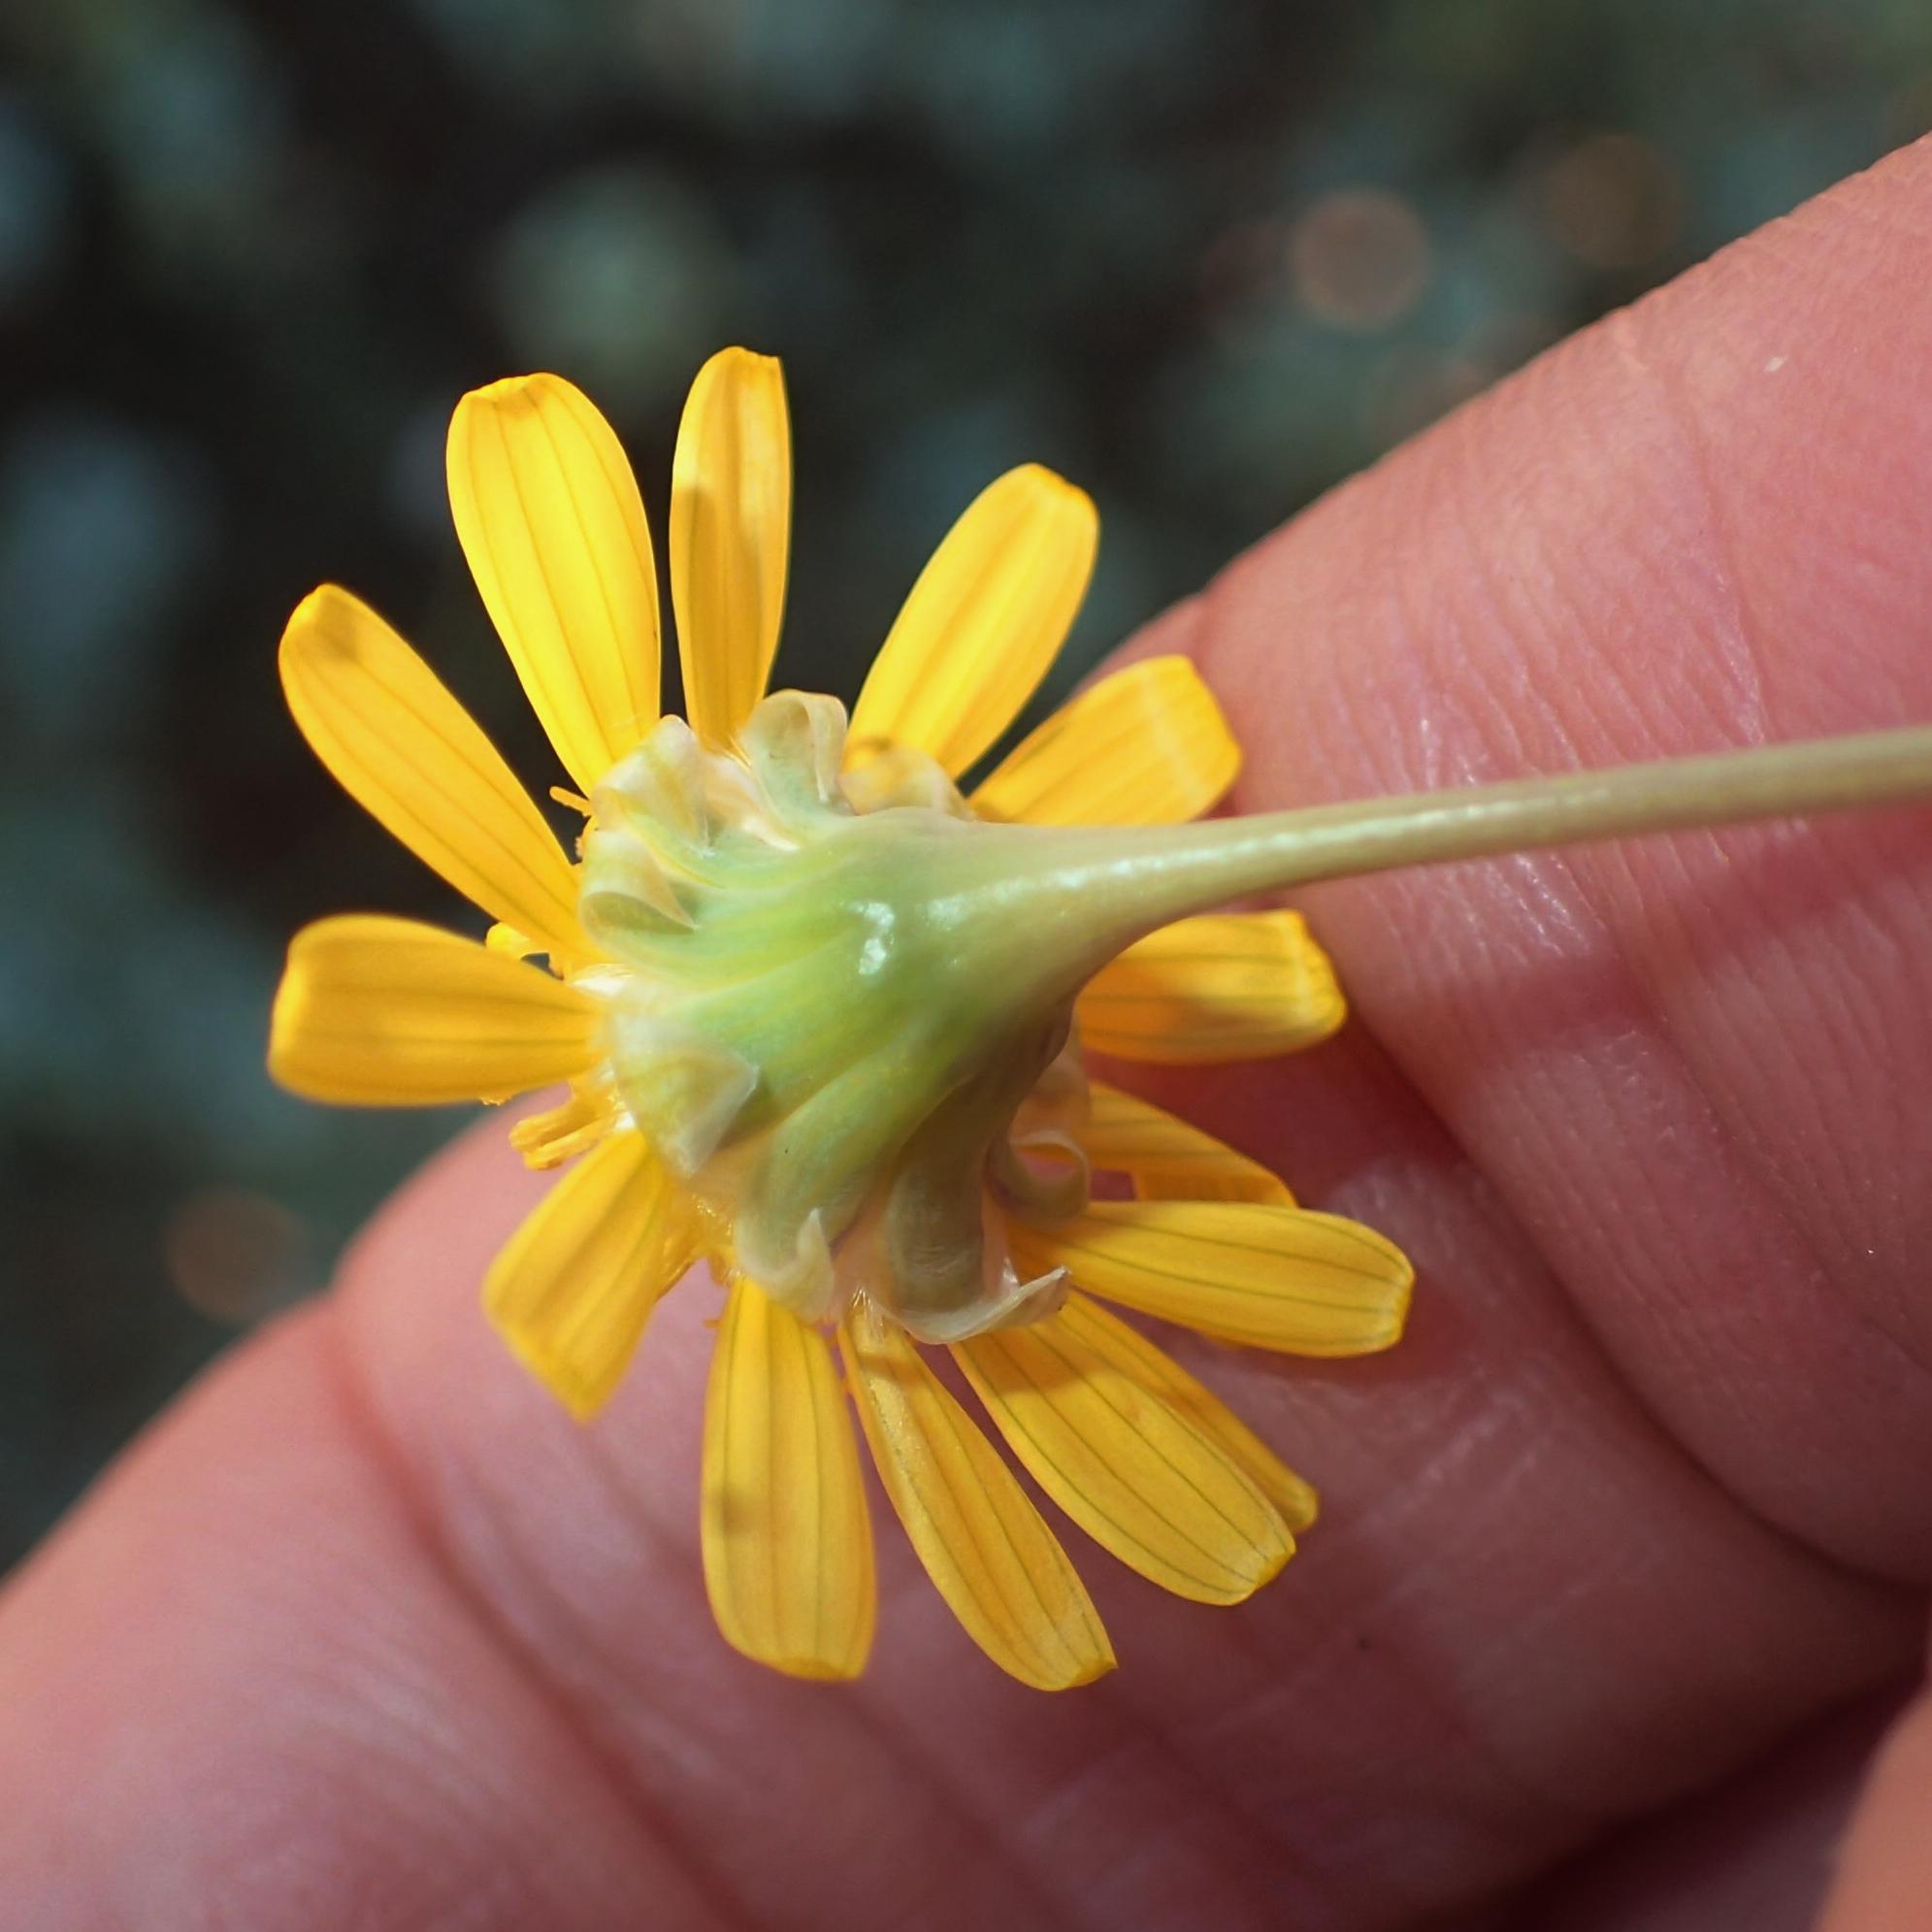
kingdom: Plantae
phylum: Tracheophyta
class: Magnoliopsida
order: Asterales
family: Asteraceae
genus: Crassothonna
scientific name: Crassothonna sedifolia
